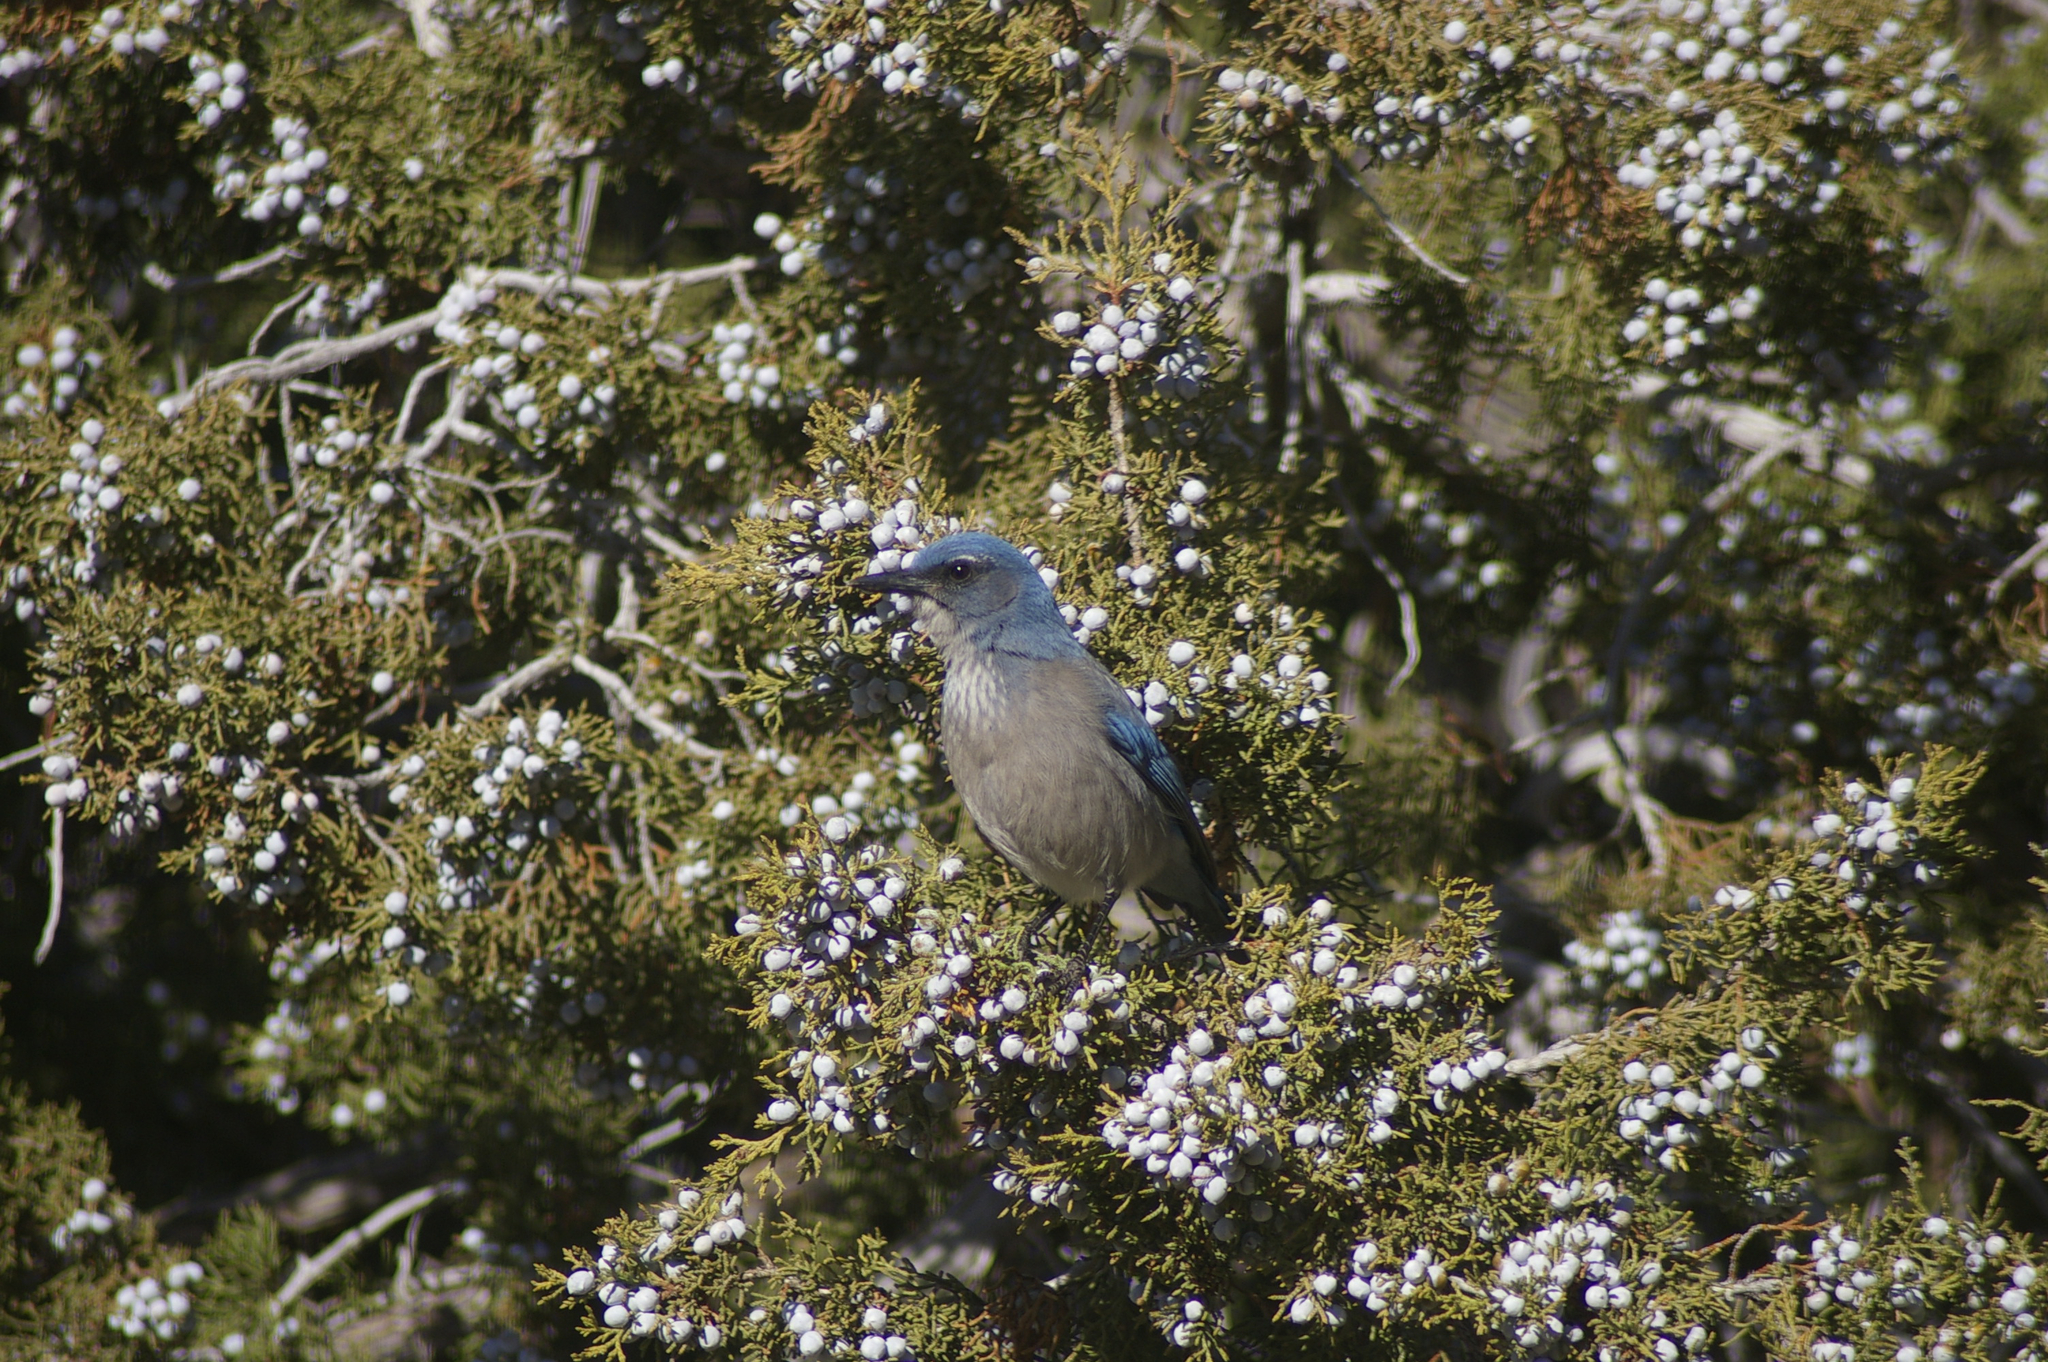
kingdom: Animalia
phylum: Chordata
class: Aves
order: Passeriformes
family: Corvidae
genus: Aphelocoma
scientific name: Aphelocoma woodhouseii
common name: Woodhouse's scrub-jay
